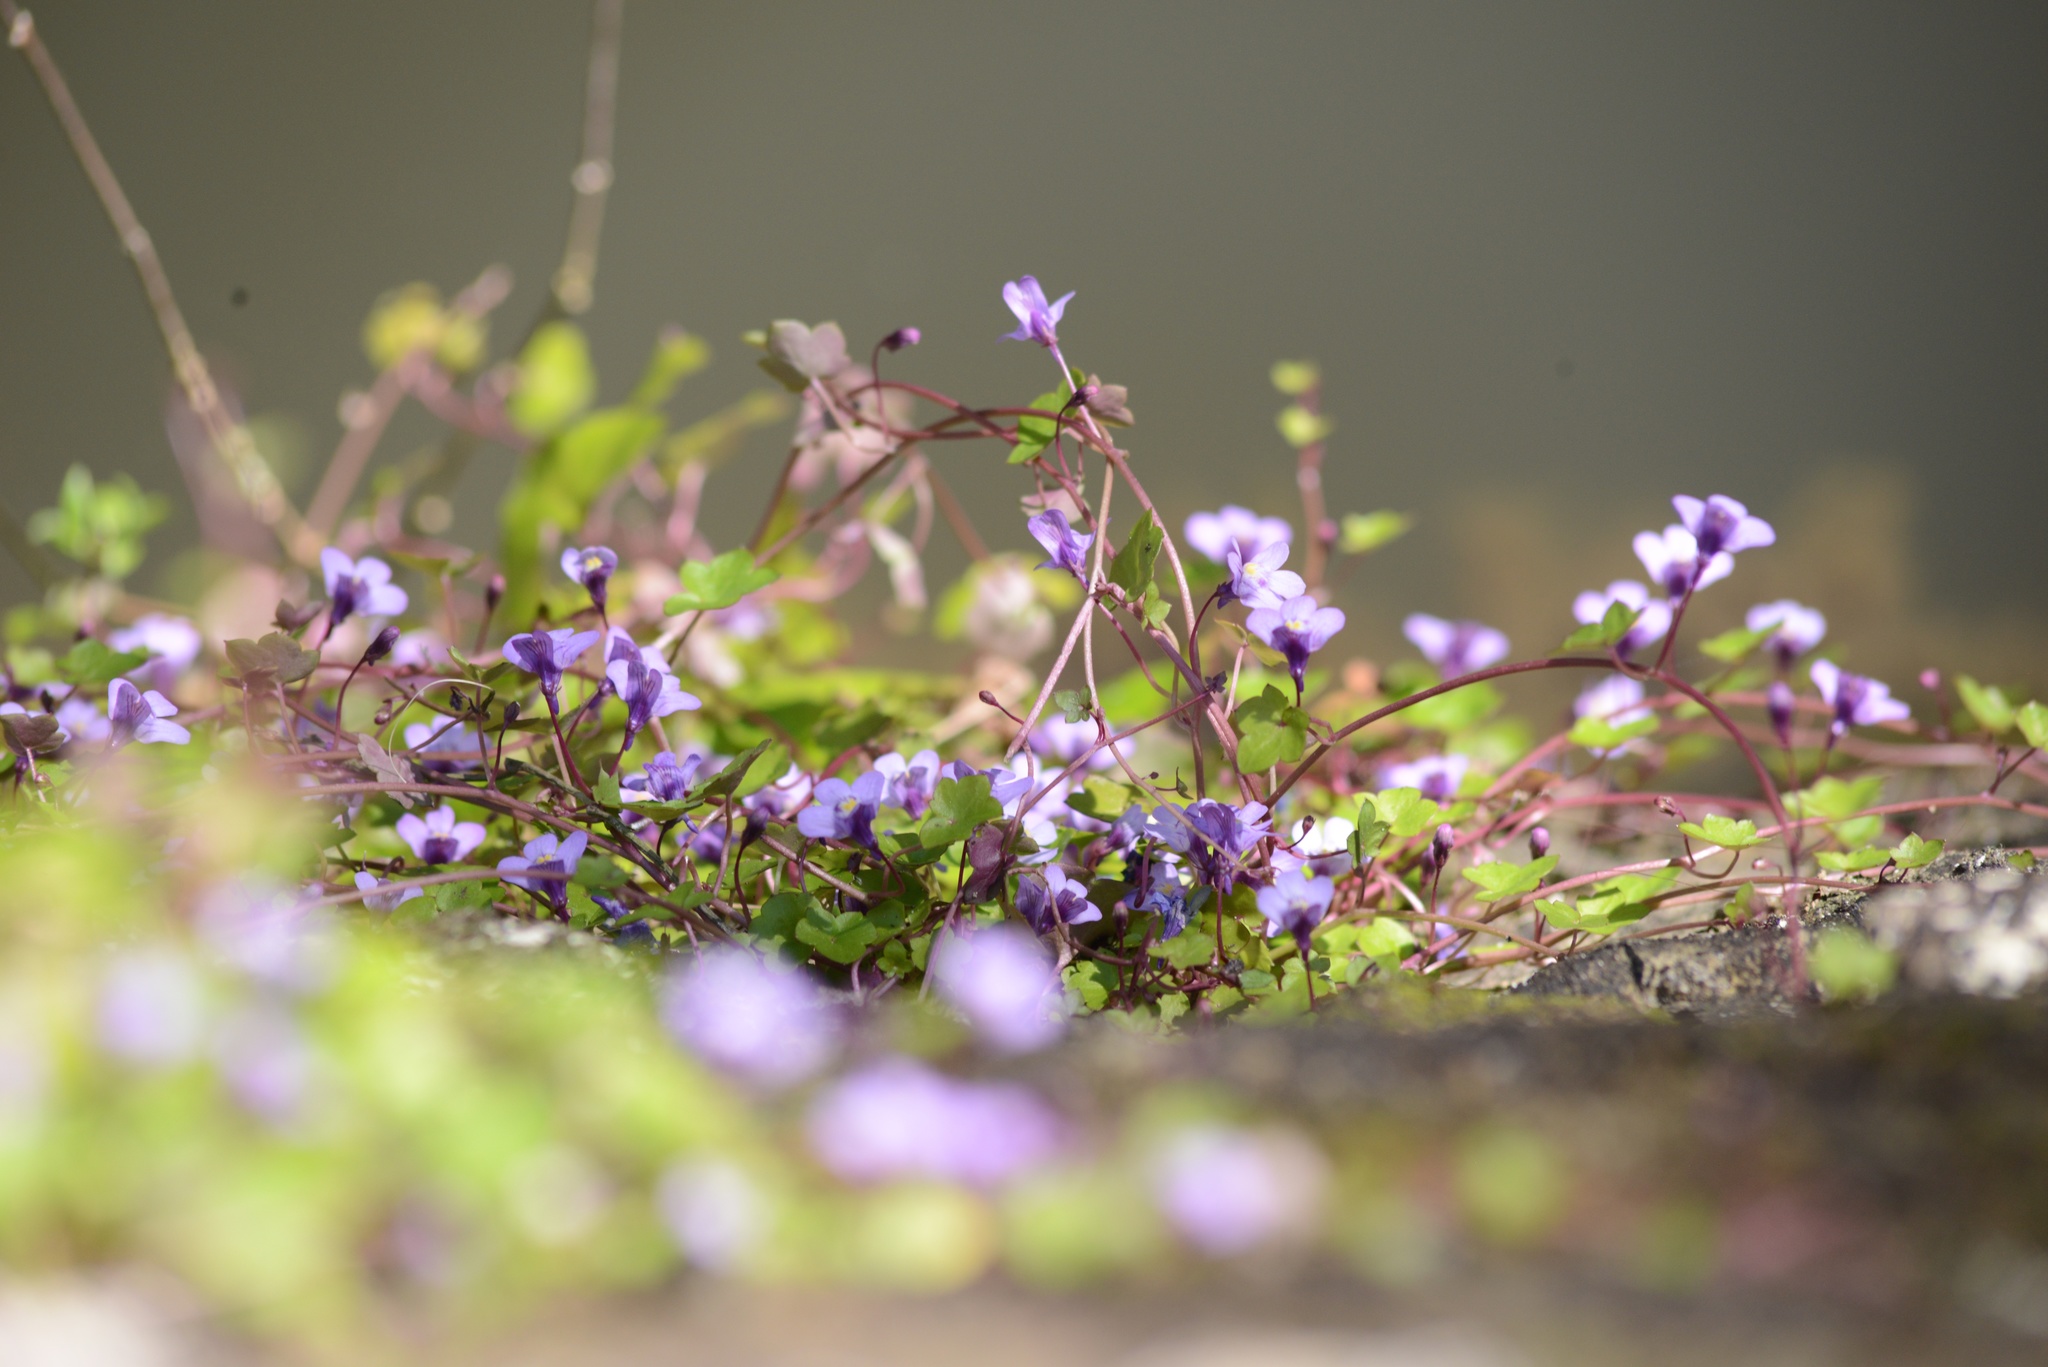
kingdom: Plantae
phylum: Tracheophyta
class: Magnoliopsida
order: Lamiales
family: Plantaginaceae
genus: Cymbalaria
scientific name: Cymbalaria muralis
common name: Ivy-leaved toadflax
